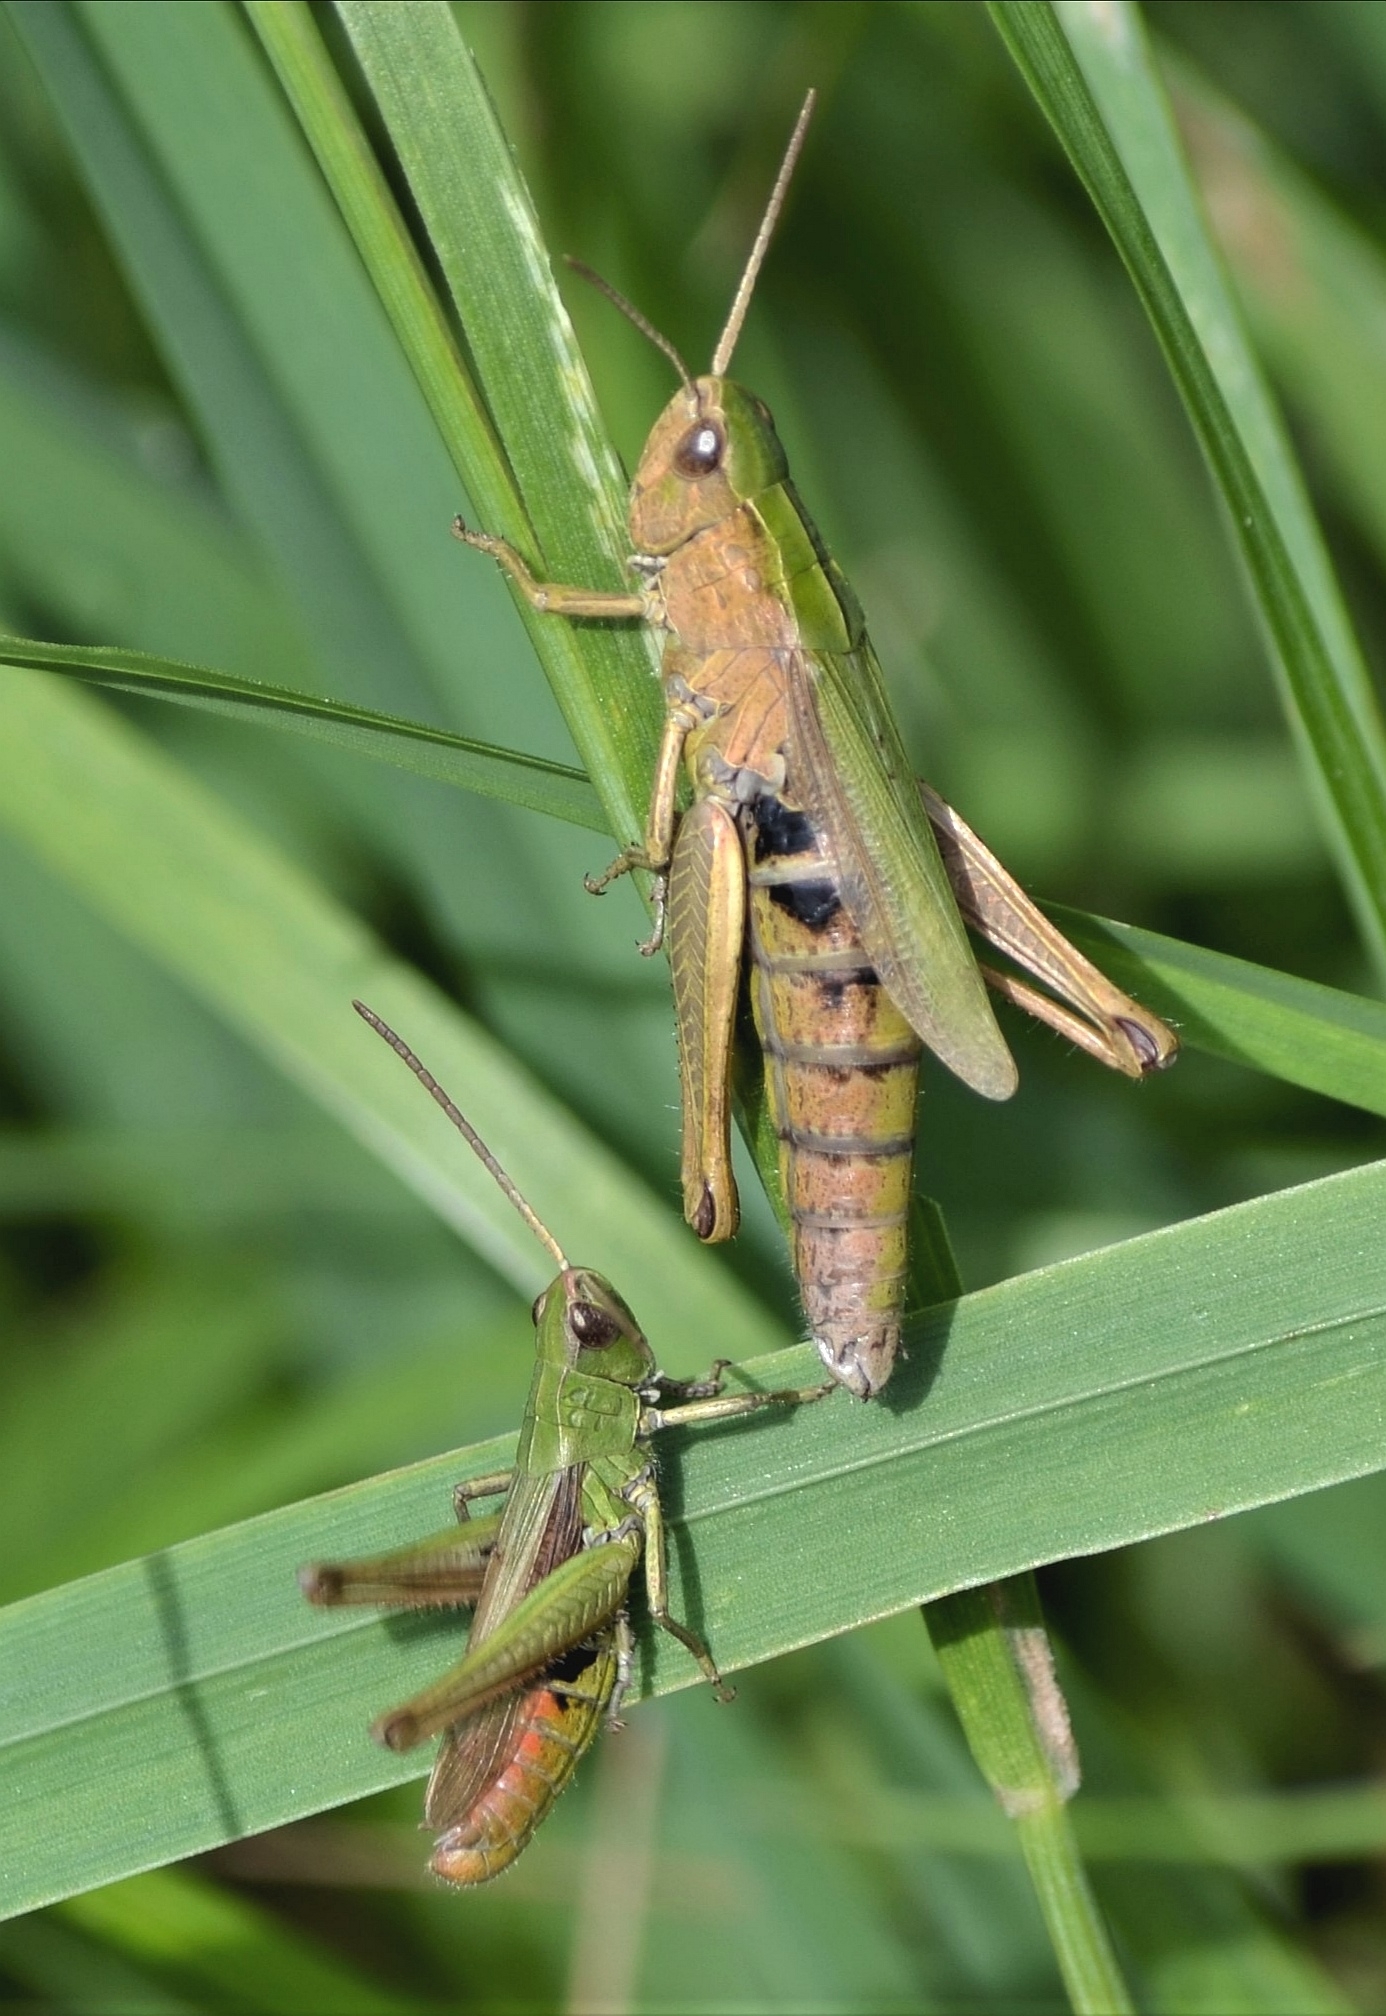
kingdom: Animalia
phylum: Arthropoda
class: Insecta
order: Orthoptera
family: Acrididae
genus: Chorthippus
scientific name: Chorthippus dorsatus
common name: Steppe grasshopper
